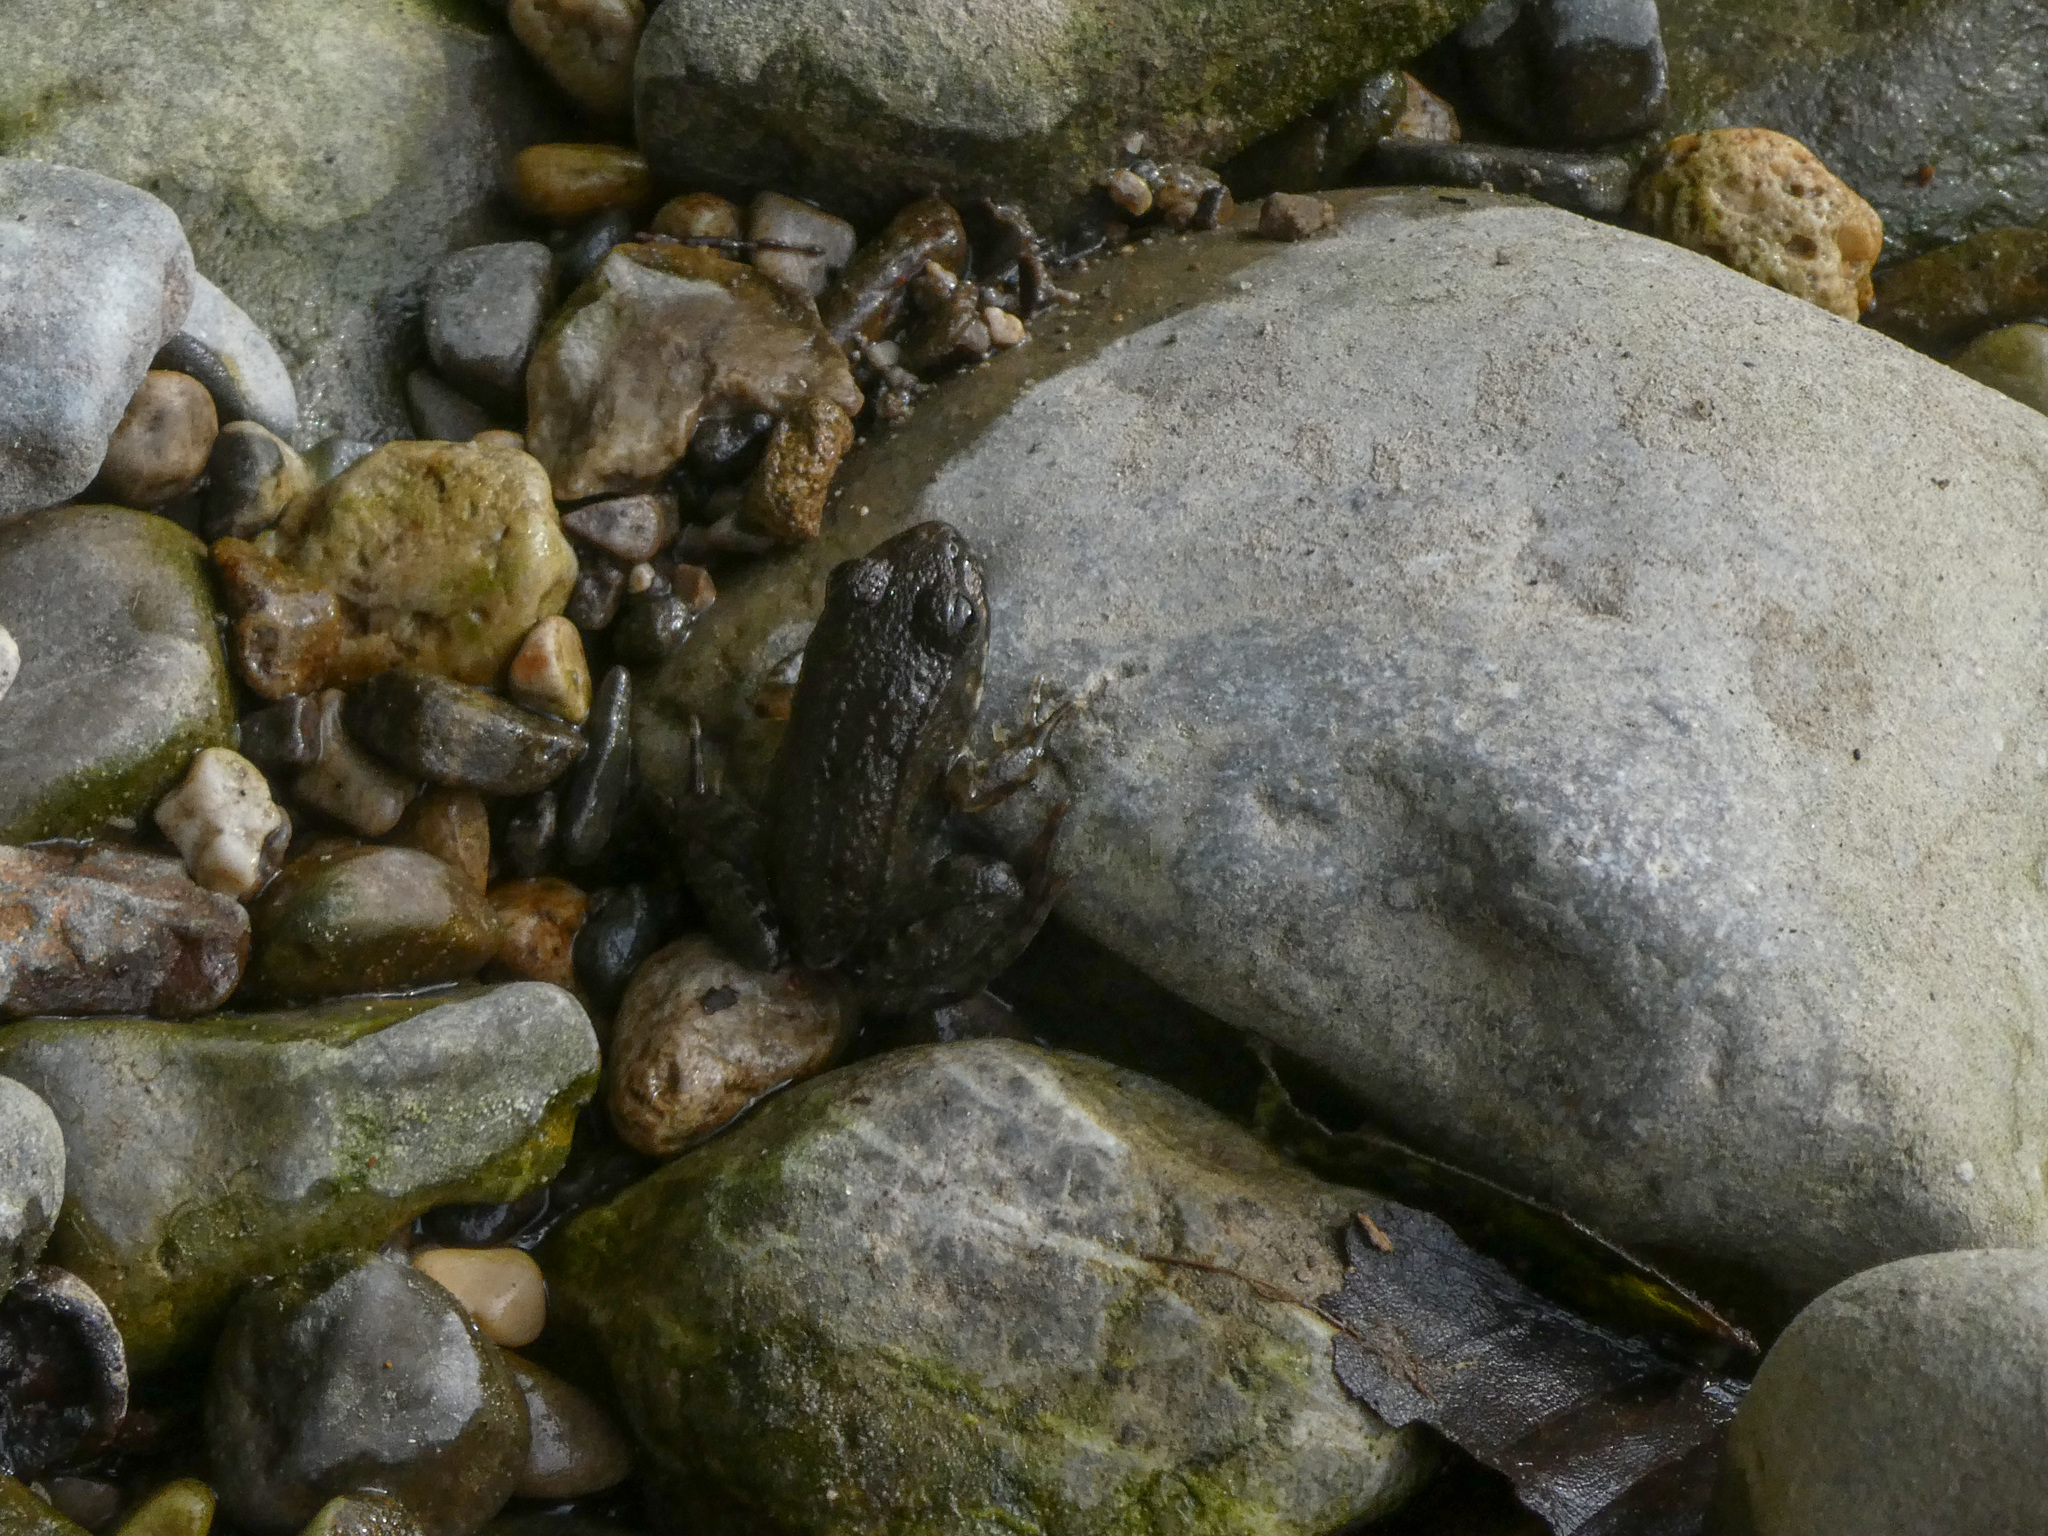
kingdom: Animalia
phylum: Chordata
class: Amphibia
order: Anura
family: Ranidae
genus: Pelophylax
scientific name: Pelophylax
